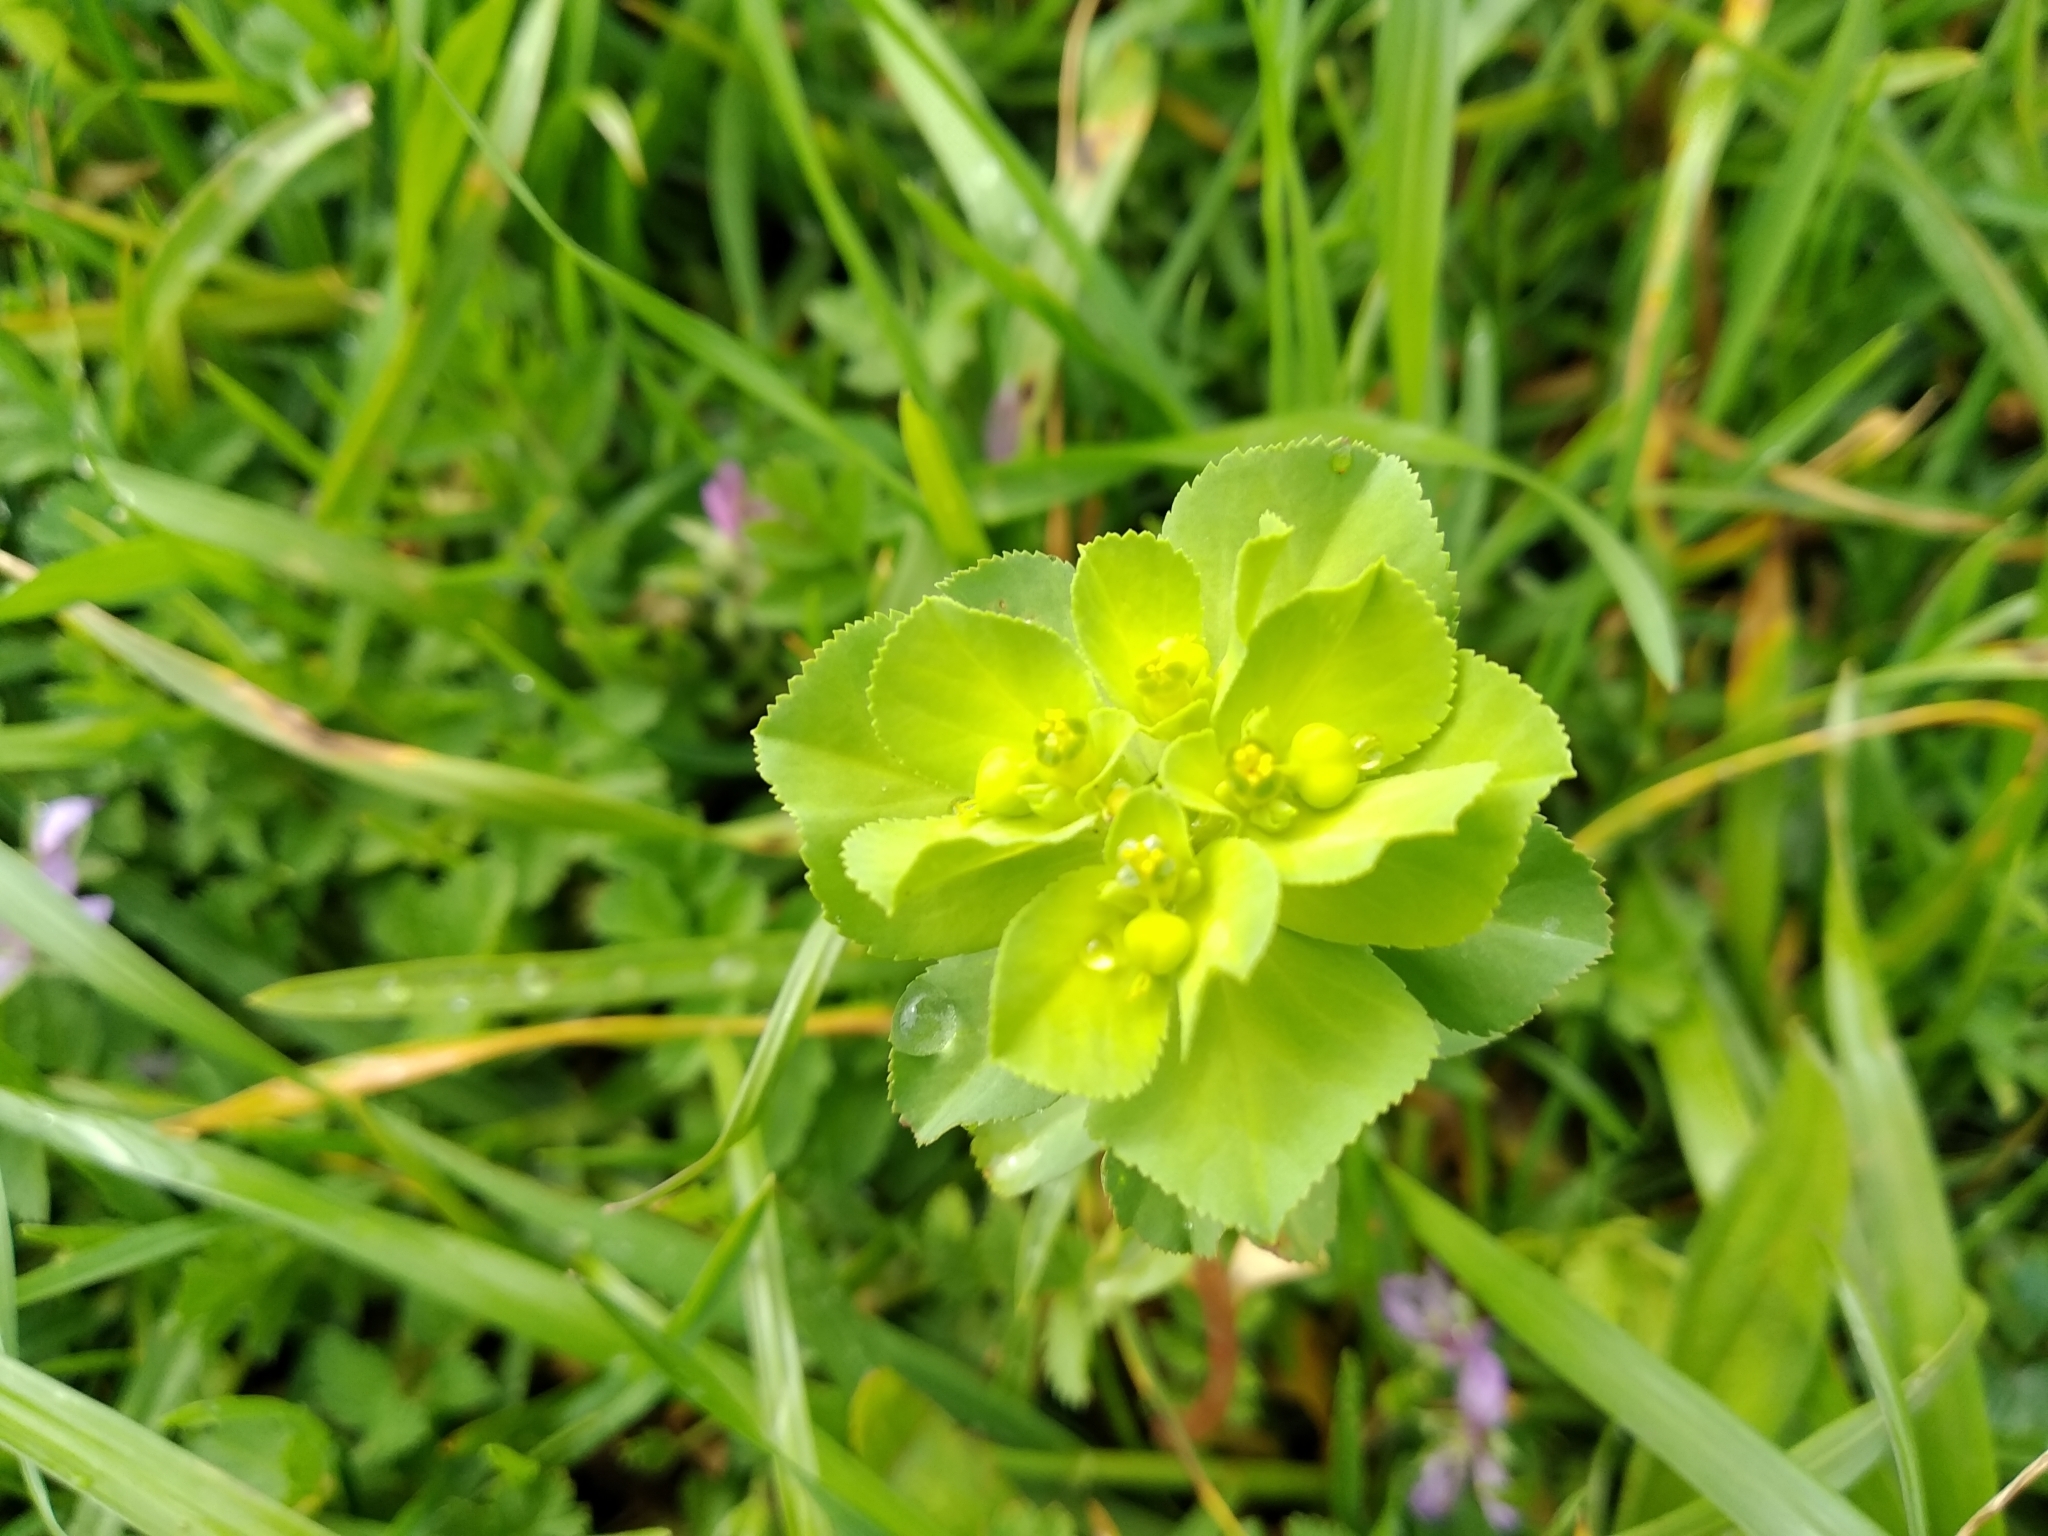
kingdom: Plantae
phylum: Tracheophyta
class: Magnoliopsida
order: Malpighiales
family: Euphorbiaceae
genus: Euphorbia
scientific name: Euphorbia helioscopia
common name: Sun spurge
